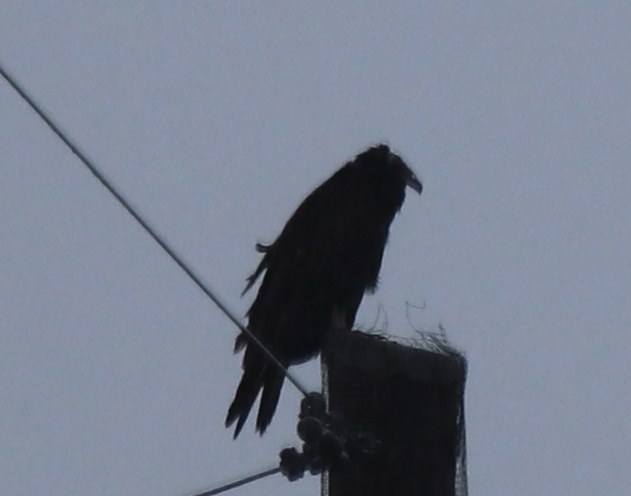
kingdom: Animalia
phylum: Chordata
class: Aves
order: Accipitriformes
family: Cathartidae
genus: Cathartes
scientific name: Cathartes aura
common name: Turkey vulture
